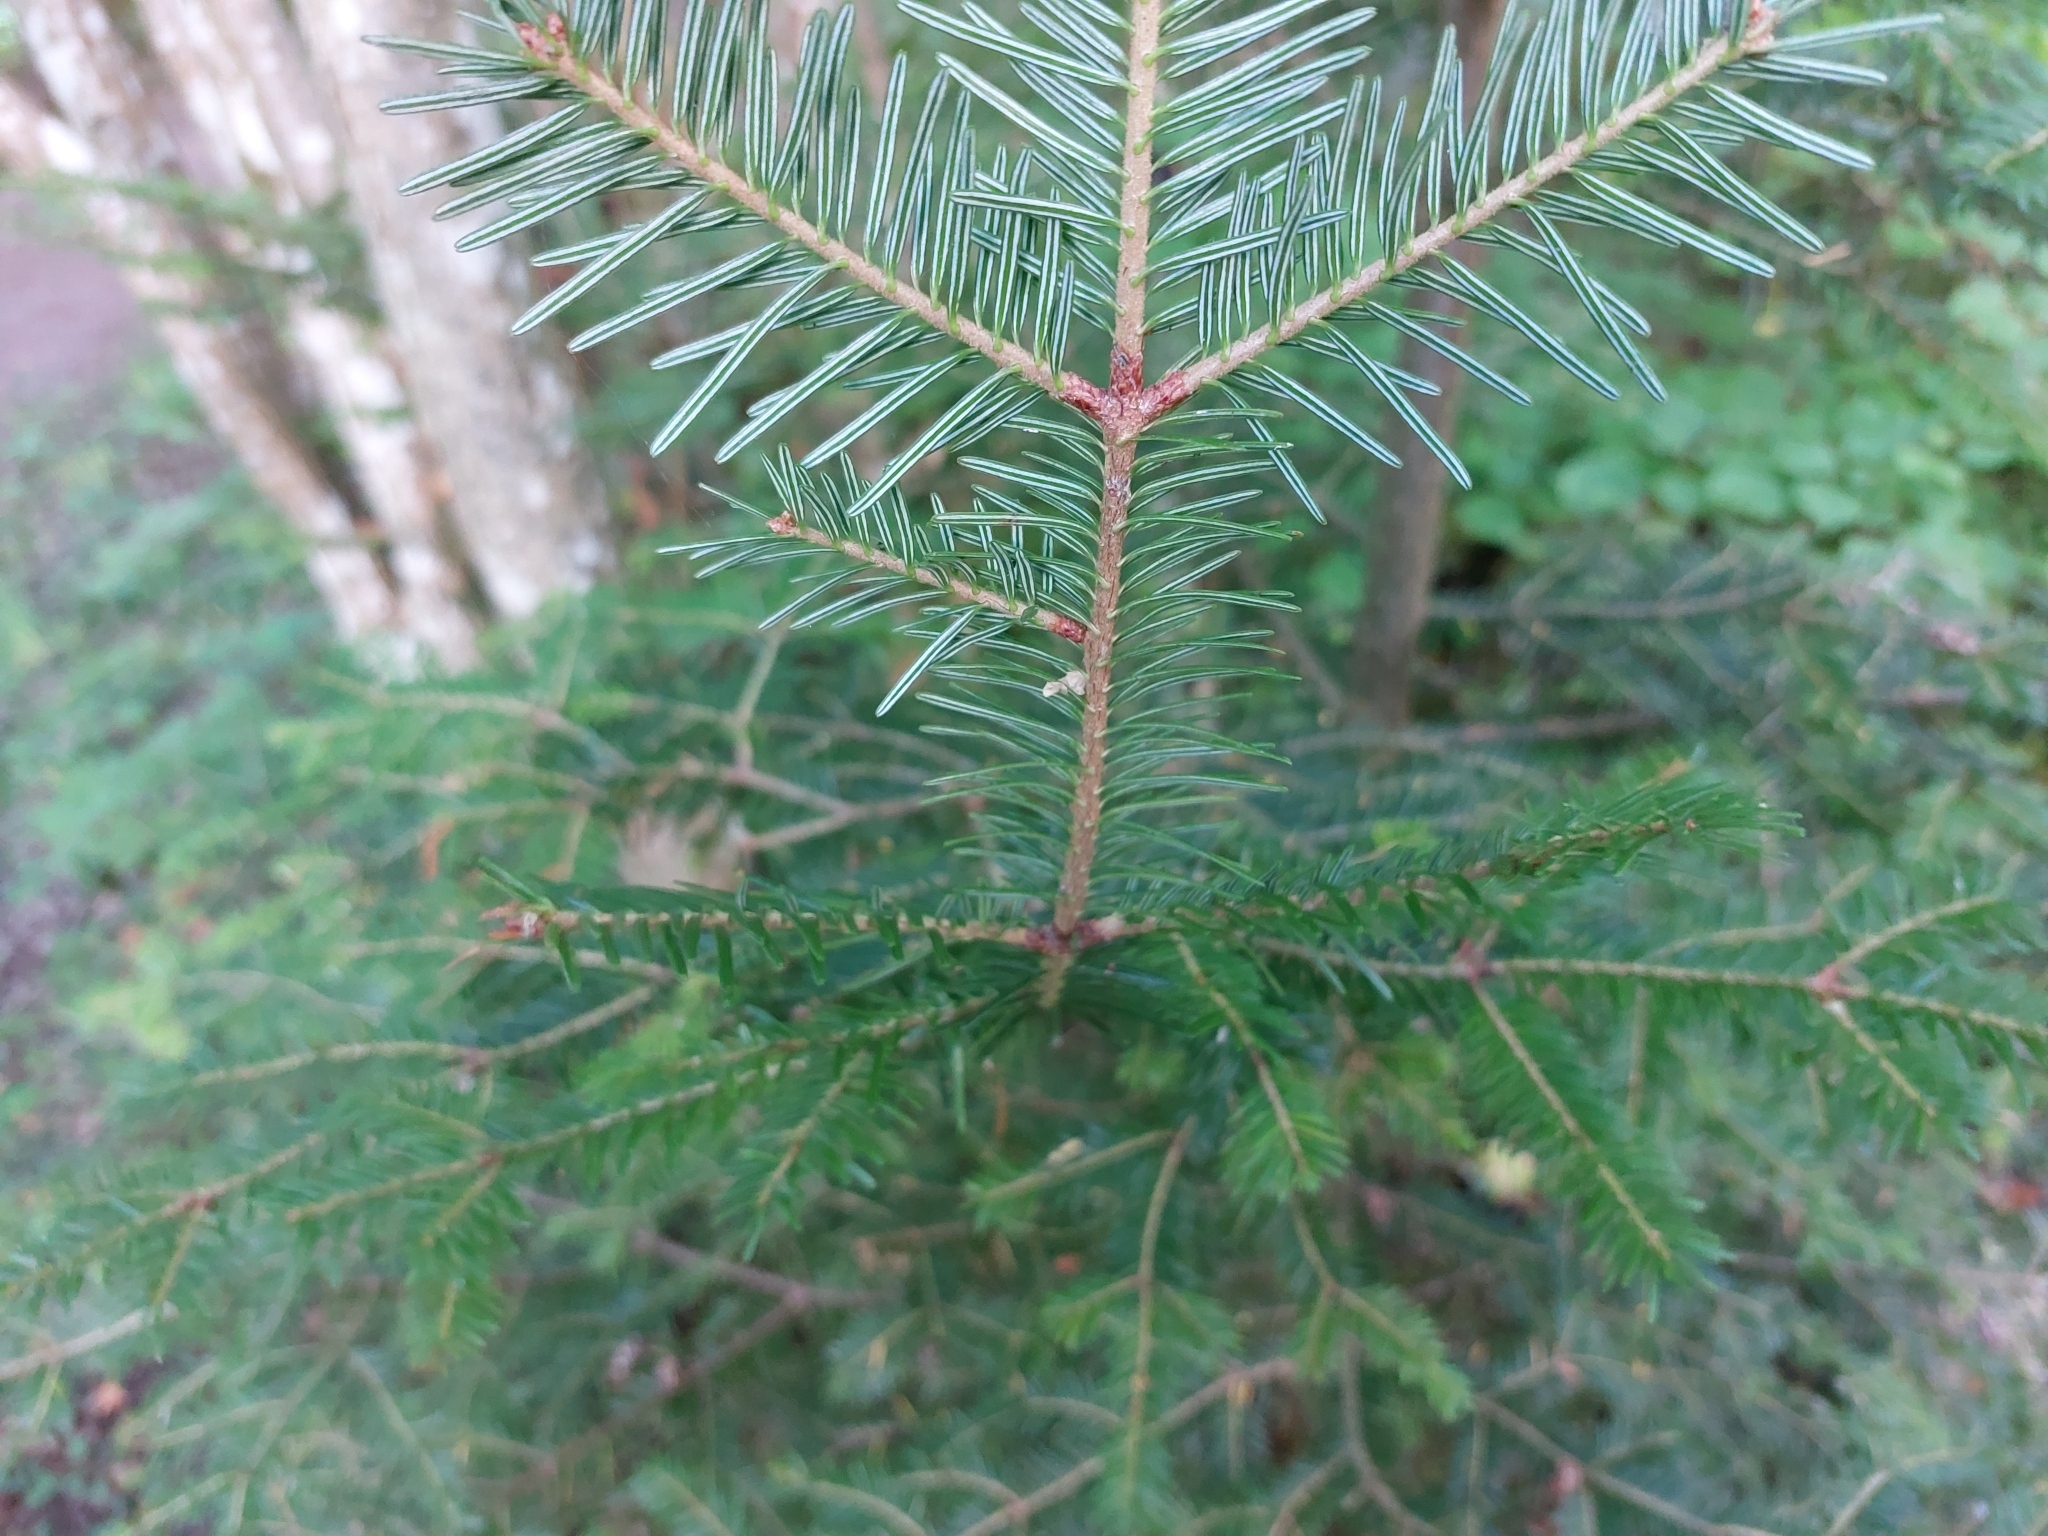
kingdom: Plantae
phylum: Tracheophyta
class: Pinopsida
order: Pinales
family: Pinaceae
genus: Abies
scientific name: Abies alba
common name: Silver fir
